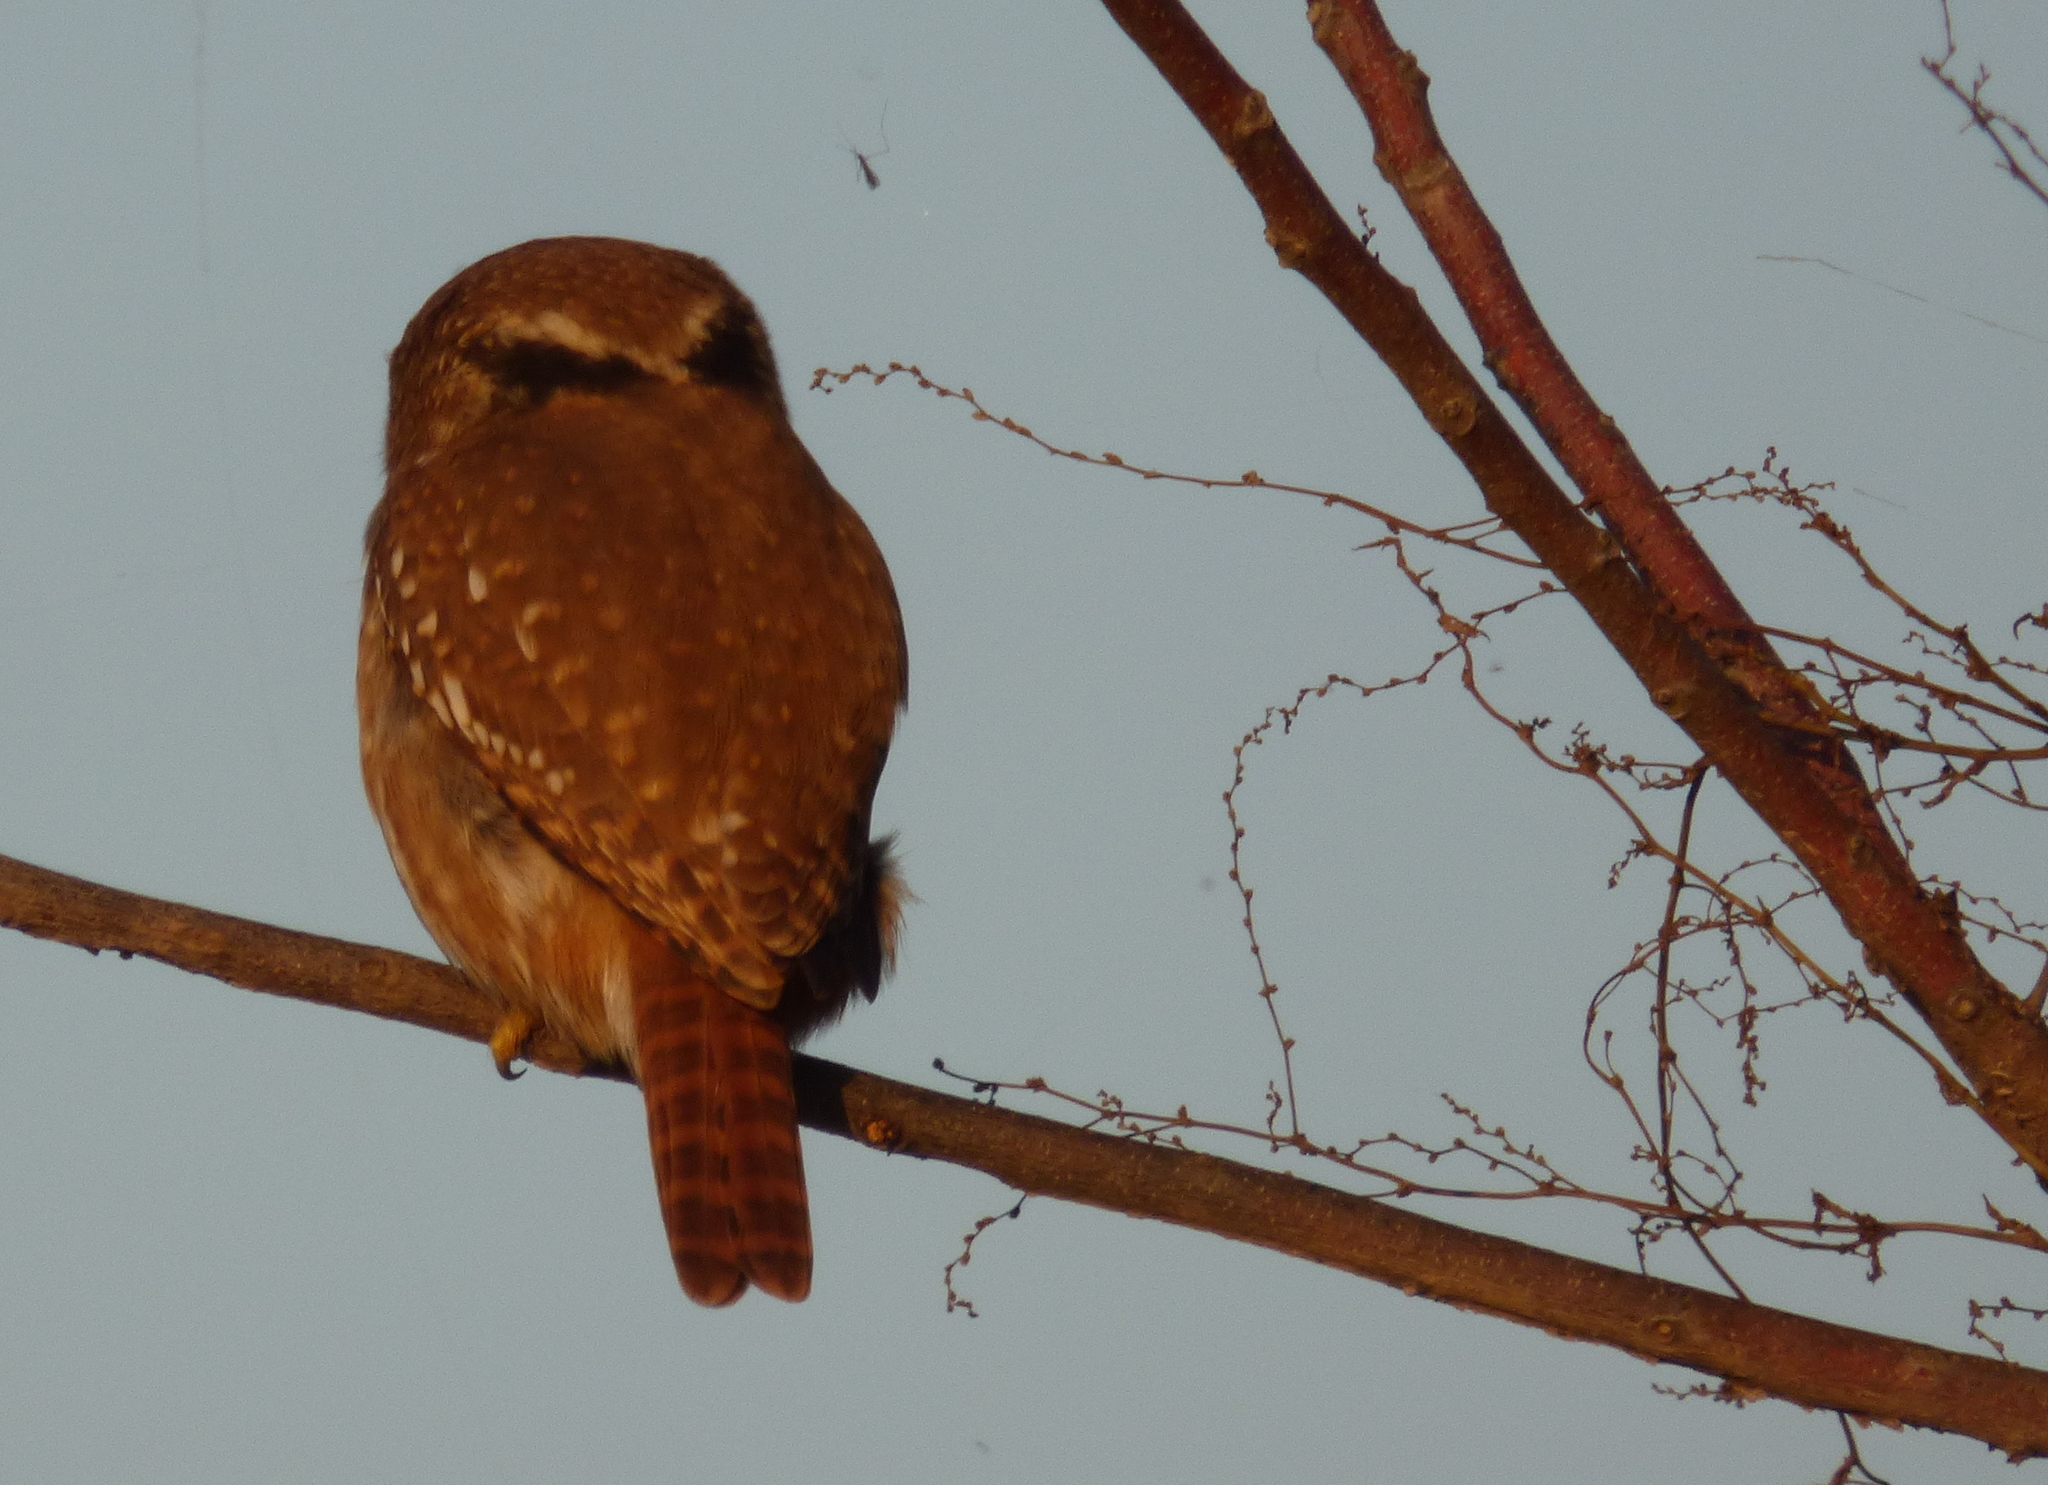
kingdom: Animalia
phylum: Chordata
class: Aves
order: Strigiformes
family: Strigidae
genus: Glaucidium
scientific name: Glaucidium brasilianum
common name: Ferruginous pygmy-owl
